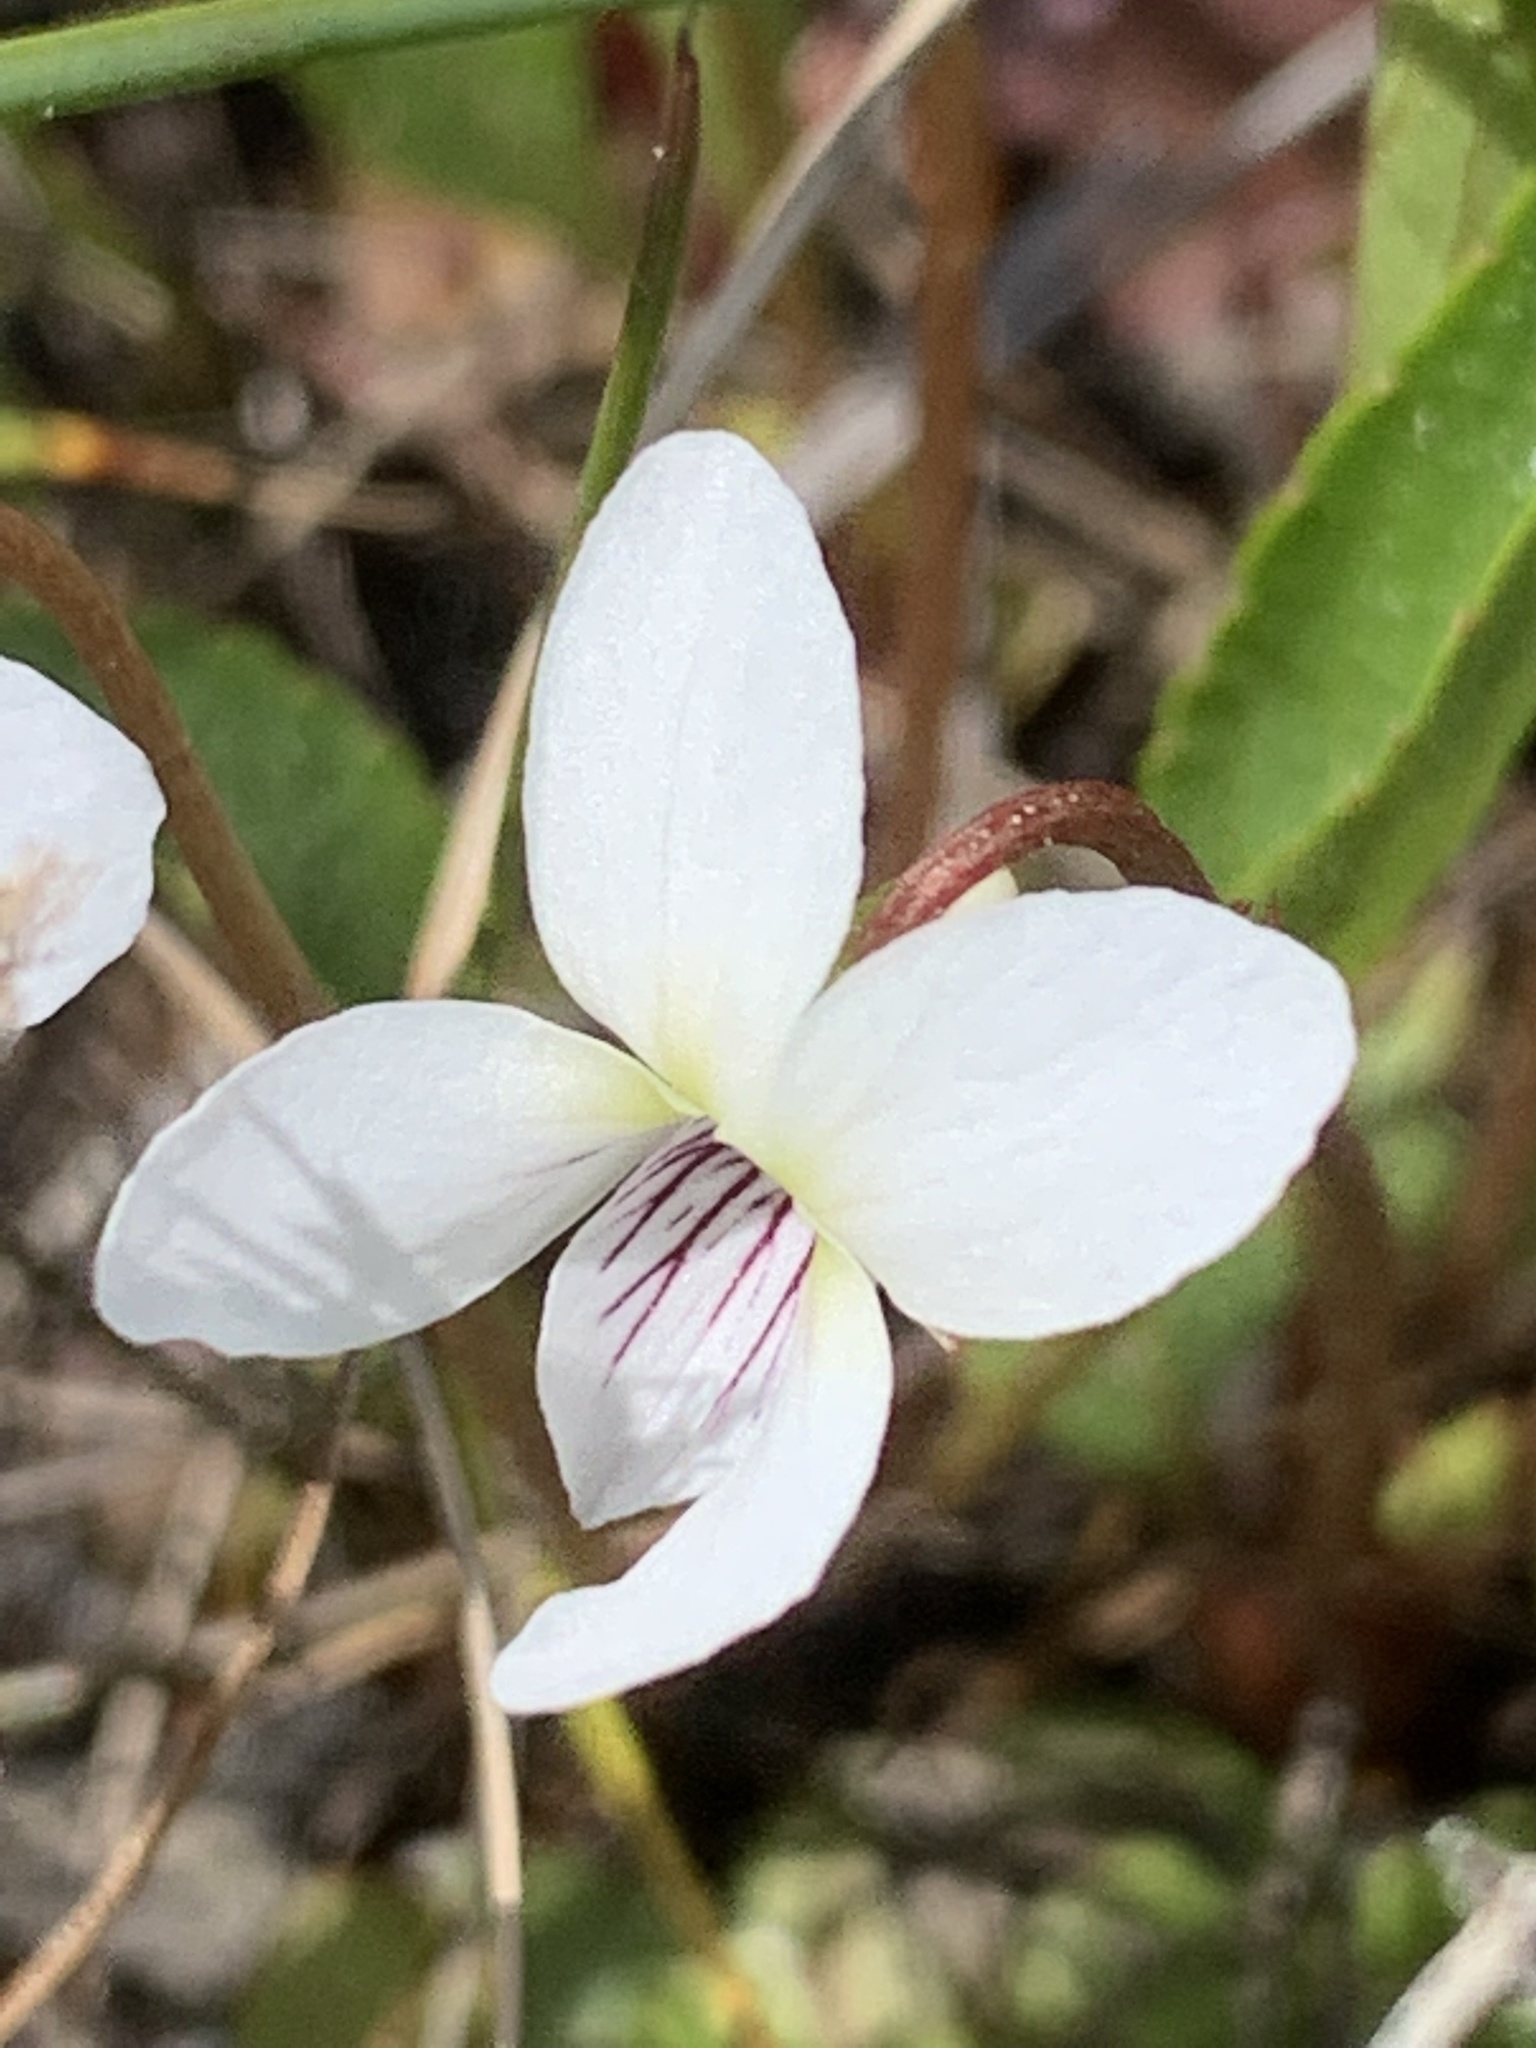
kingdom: Plantae
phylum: Tracheophyta
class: Magnoliopsida
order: Malpighiales
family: Violaceae
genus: Viola
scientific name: Viola lanceolata
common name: Bog white violet
